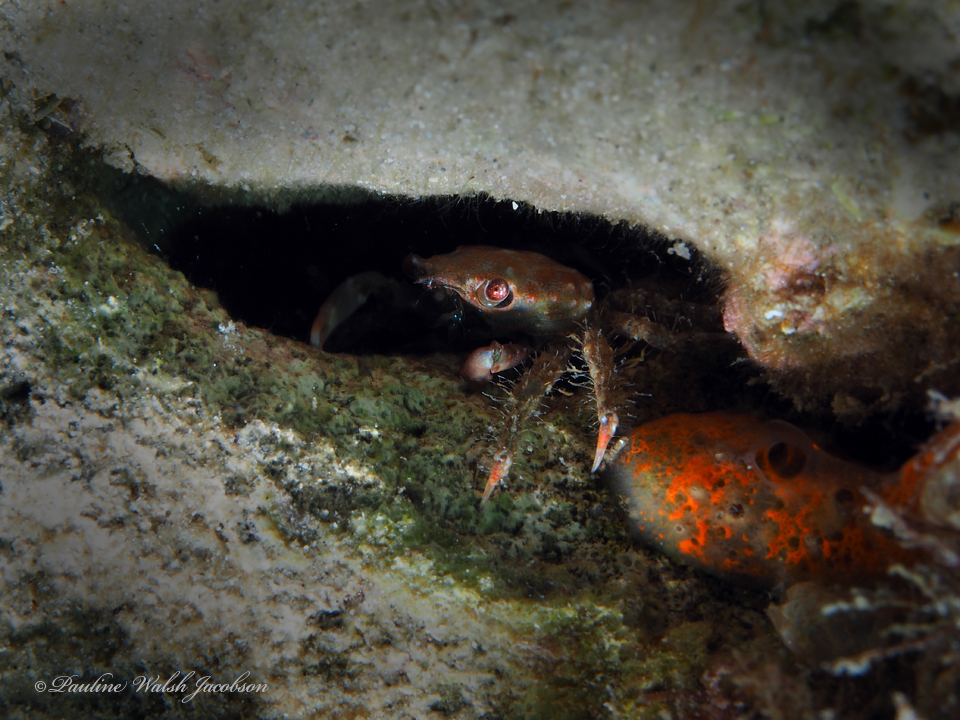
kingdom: Animalia
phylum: Arthropoda
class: Malacostraca
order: Decapoda
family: Mithracidae
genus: Mithraculus
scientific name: Mithraculus forceps
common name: Red-ridged clinging crab
